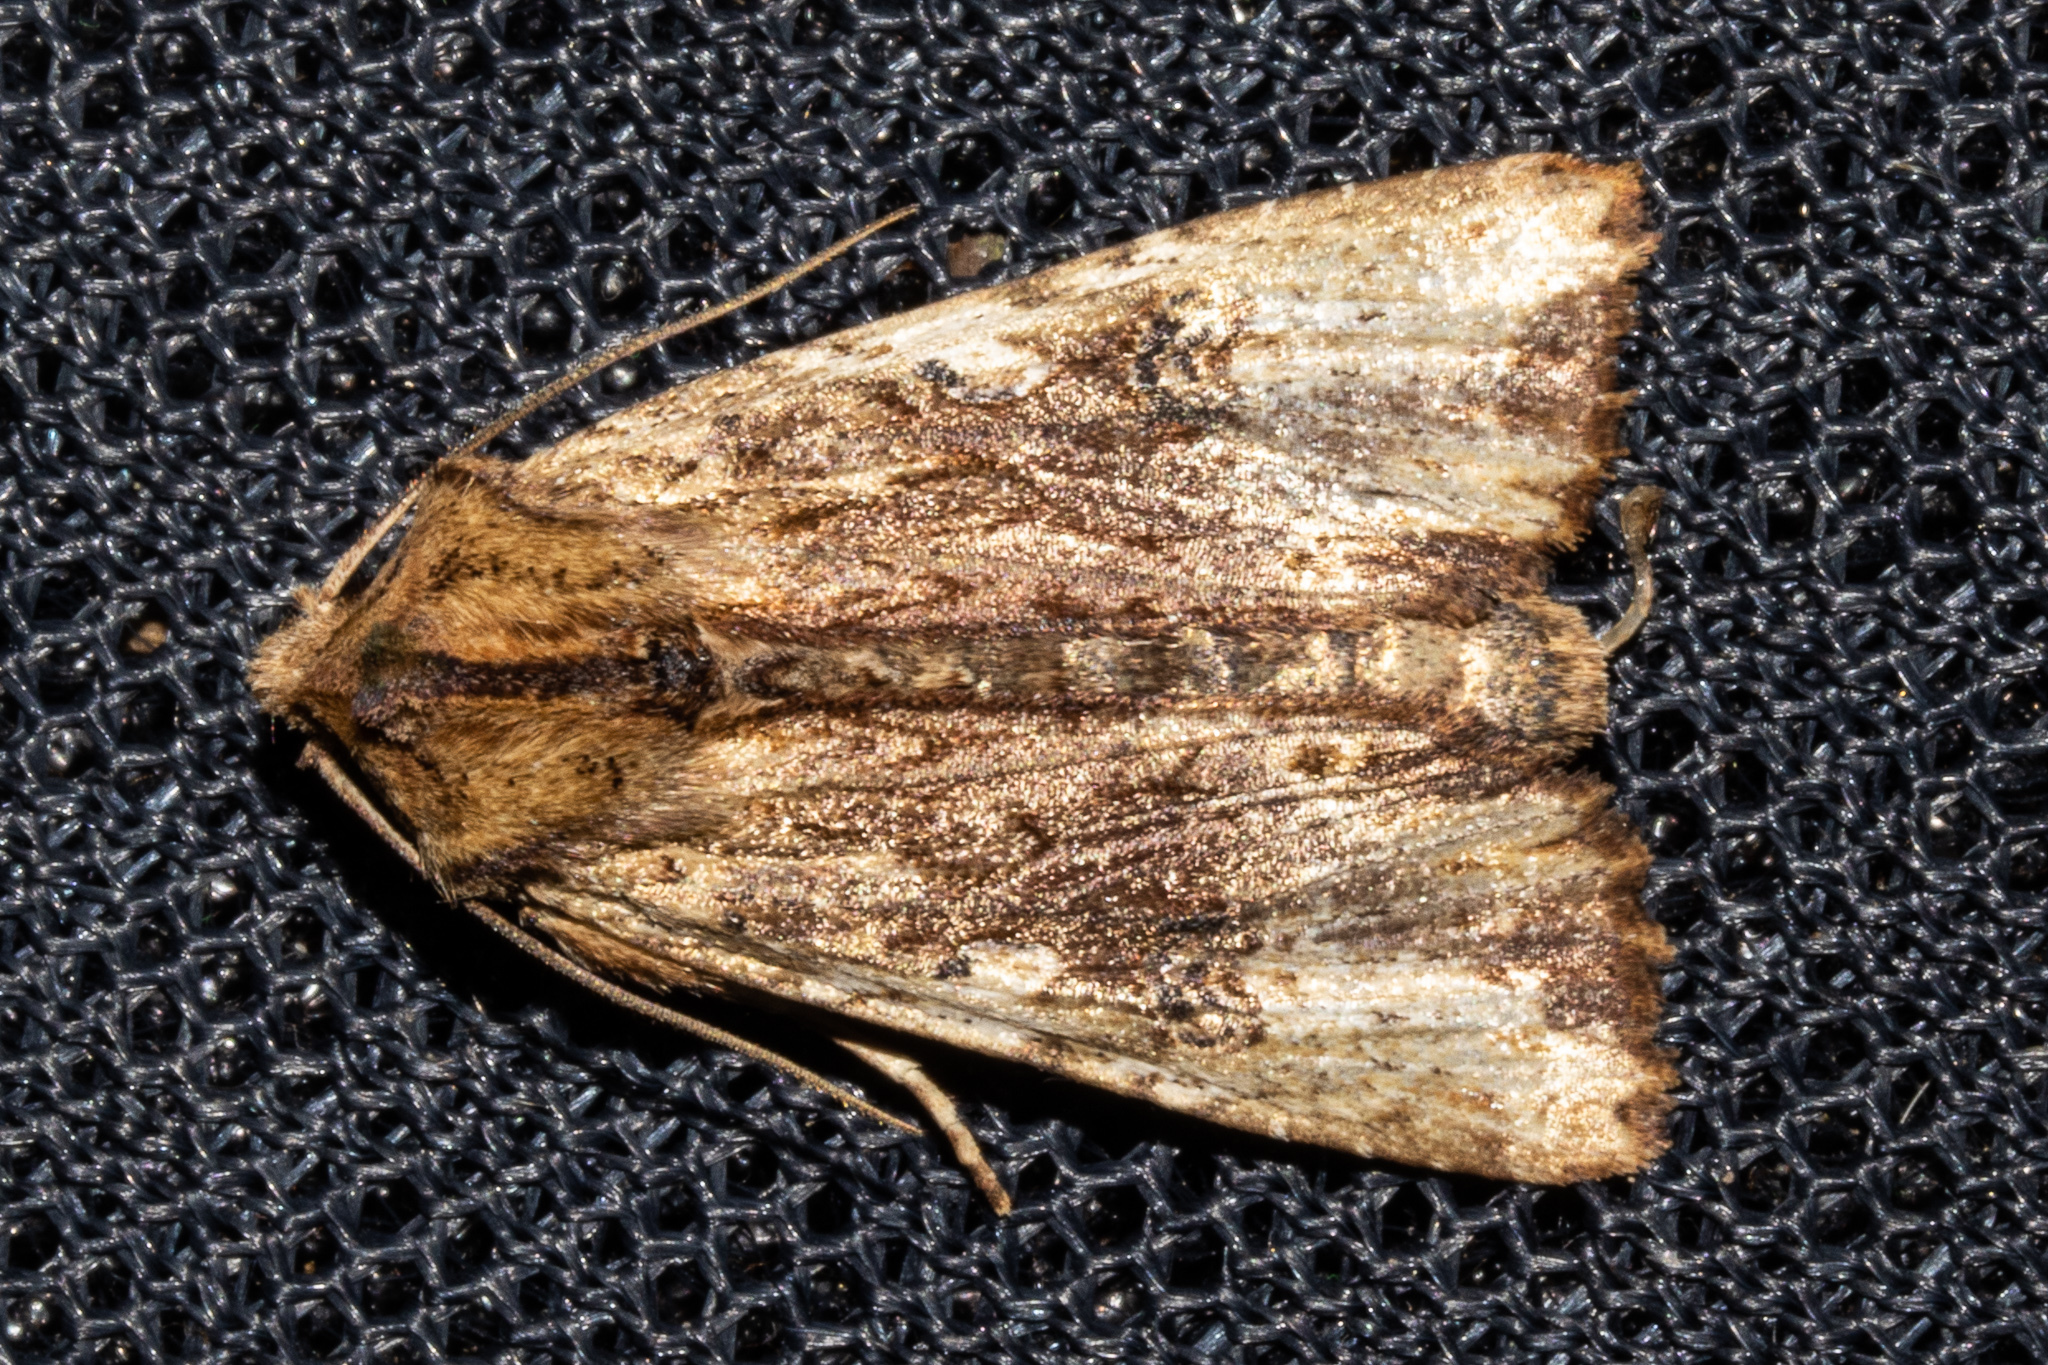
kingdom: Animalia
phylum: Arthropoda
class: Insecta
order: Lepidoptera
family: Noctuidae
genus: Ichneutica
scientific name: Ichneutica
